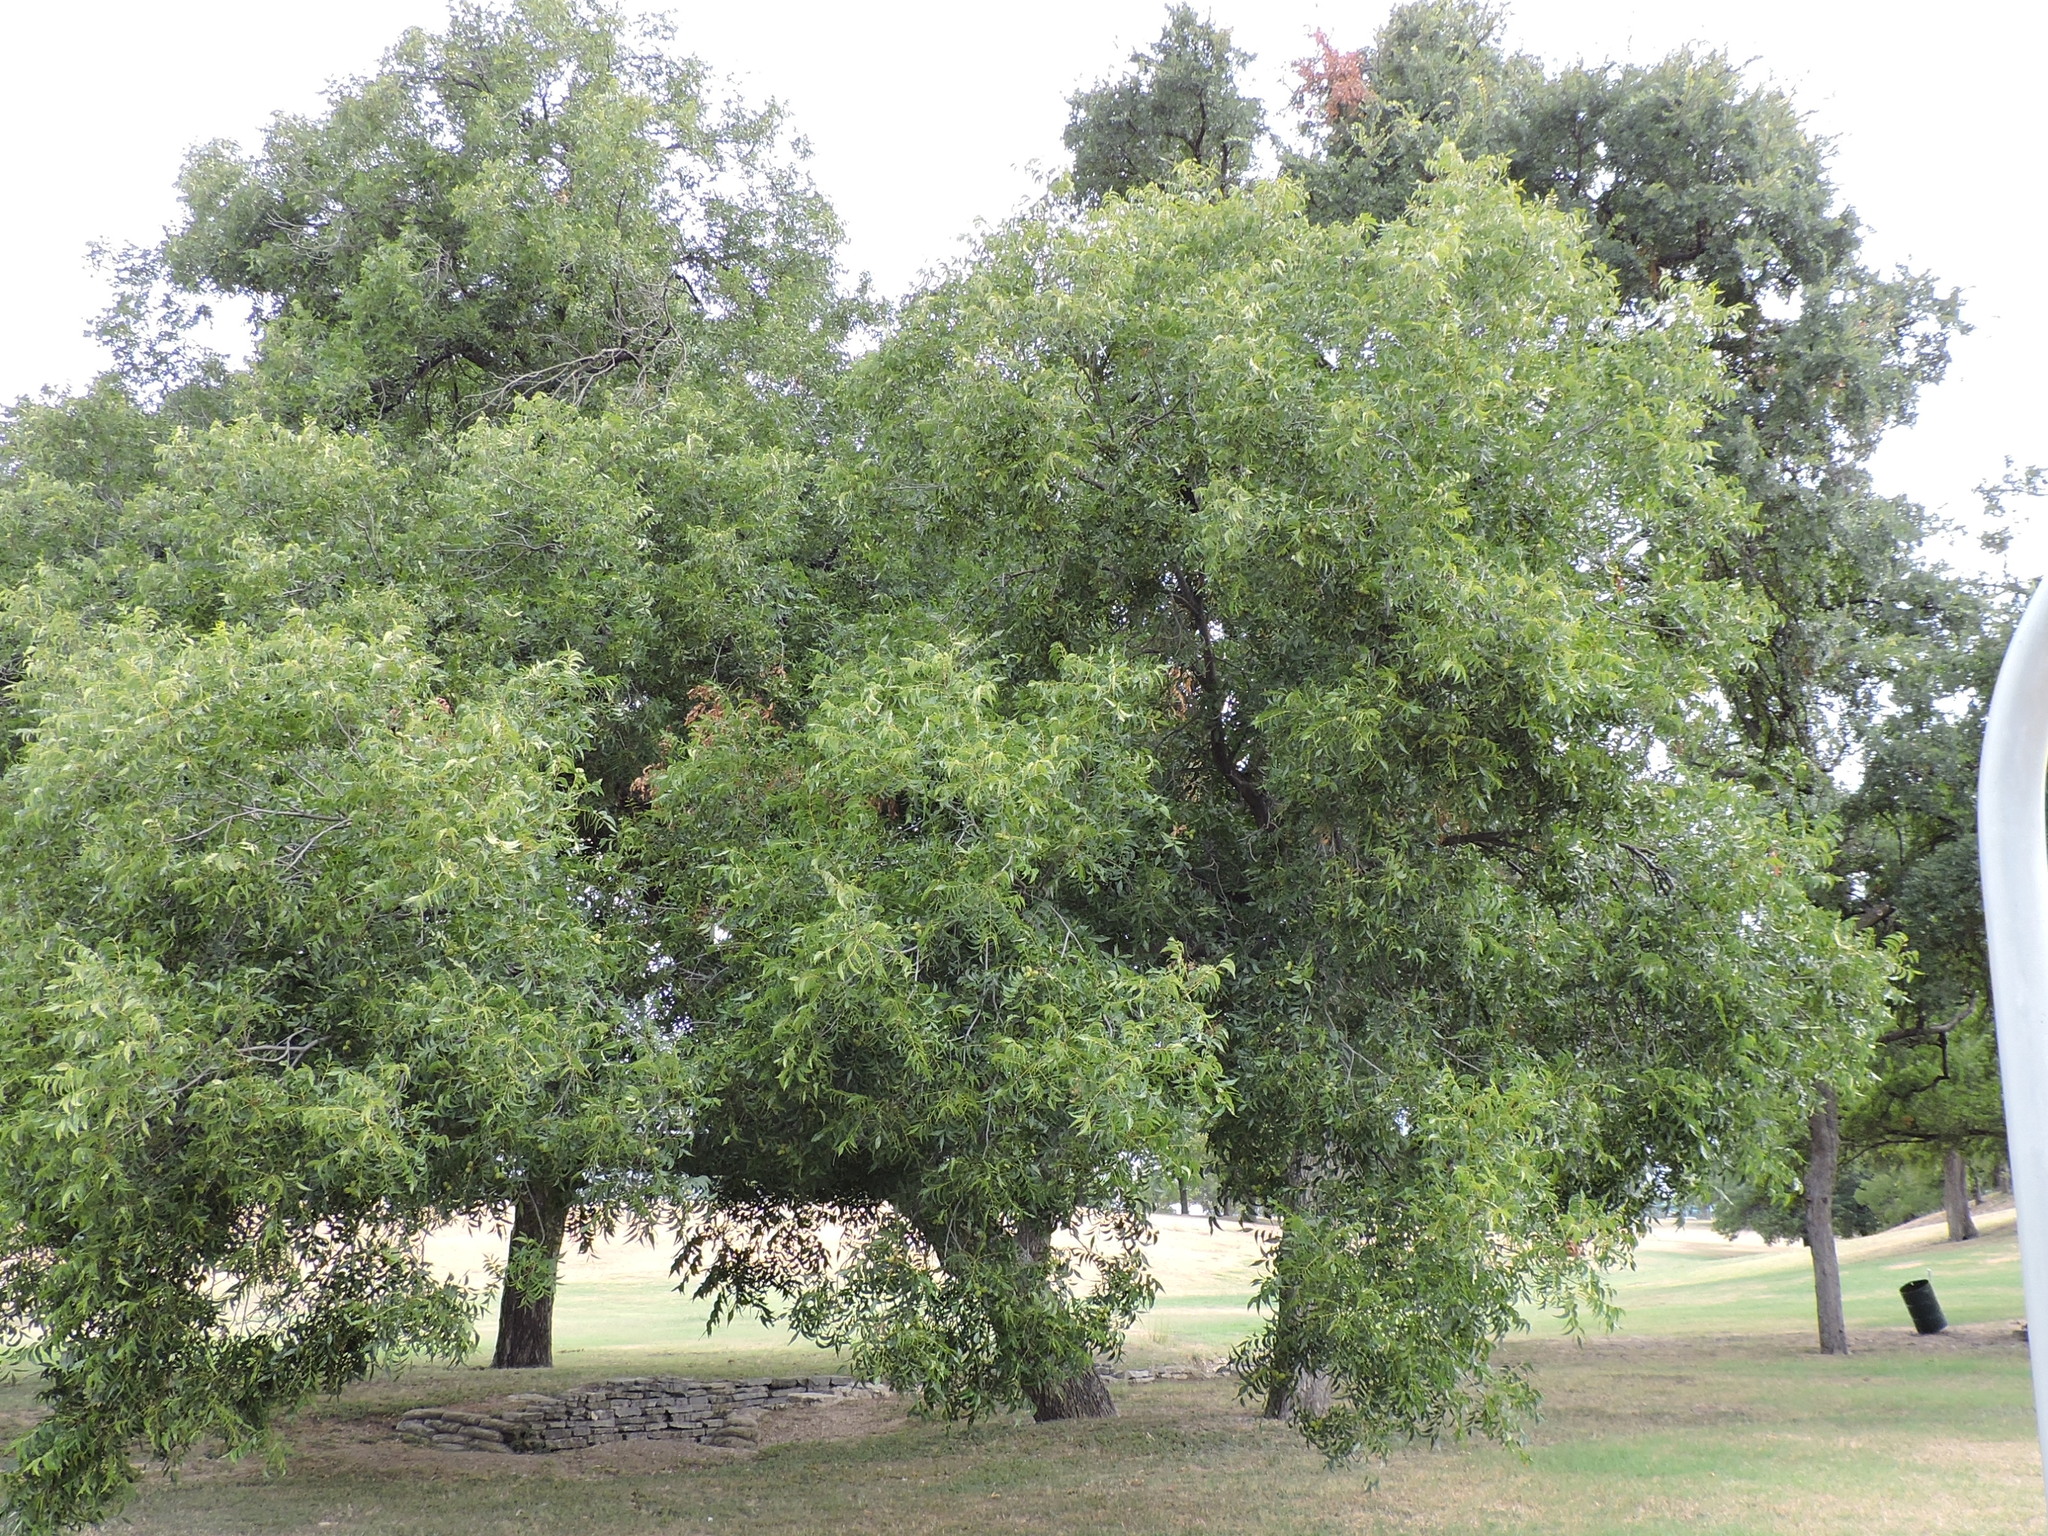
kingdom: Plantae
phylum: Tracheophyta
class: Magnoliopsida
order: Fagales
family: Juglandaceae
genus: Carya
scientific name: Carya illinoinensis
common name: Pecan
